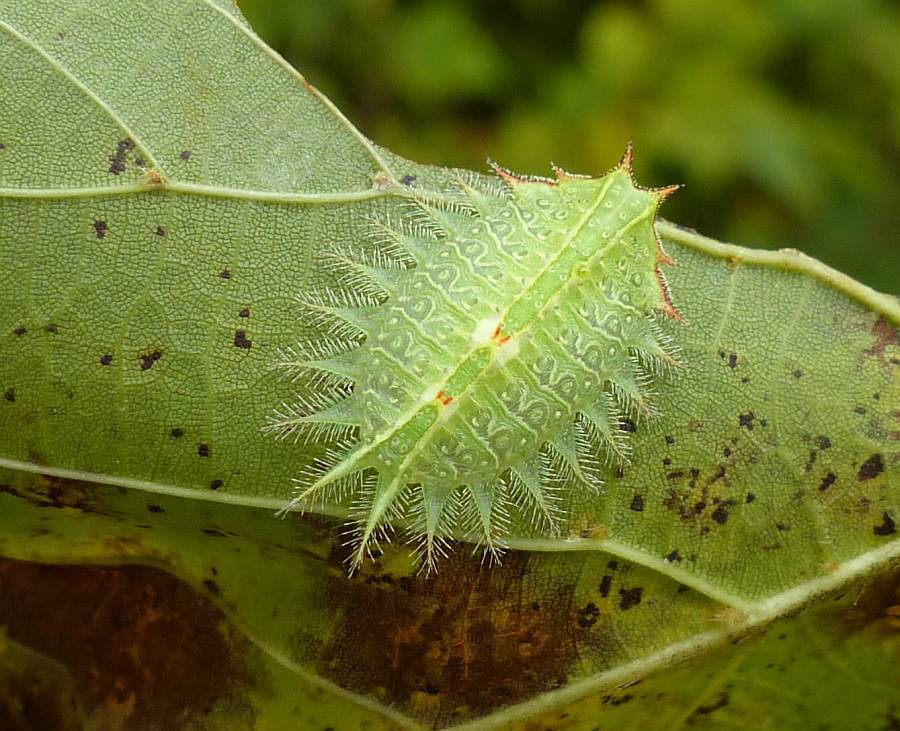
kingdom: Animalia
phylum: Arthropoda
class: Insecta
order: Lepidoptera
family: Limacodidae
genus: Isa
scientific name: Isa textula
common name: Crowned slug moth
